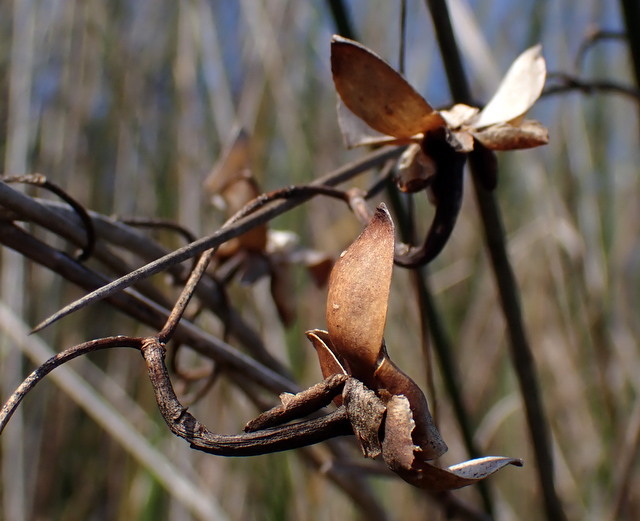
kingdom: Plantae
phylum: Tracheophyta
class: Magnoliopsida
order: Solanales
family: Convolvulaceae
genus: Ipomoea
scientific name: Ipomoea sagittata
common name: Saltmarsh morning glory
